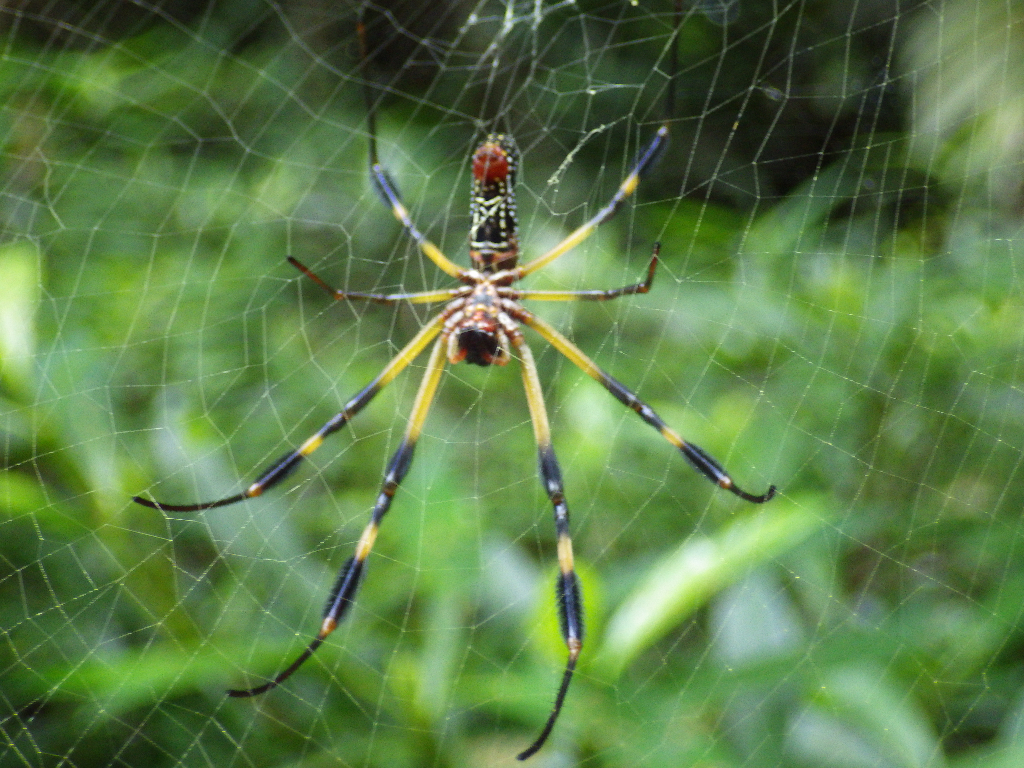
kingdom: Animalia
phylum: Arthropoda
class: Arachnida
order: Araneae
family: Araneidae
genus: Trichonephila
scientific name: Trichonephila clavipes
